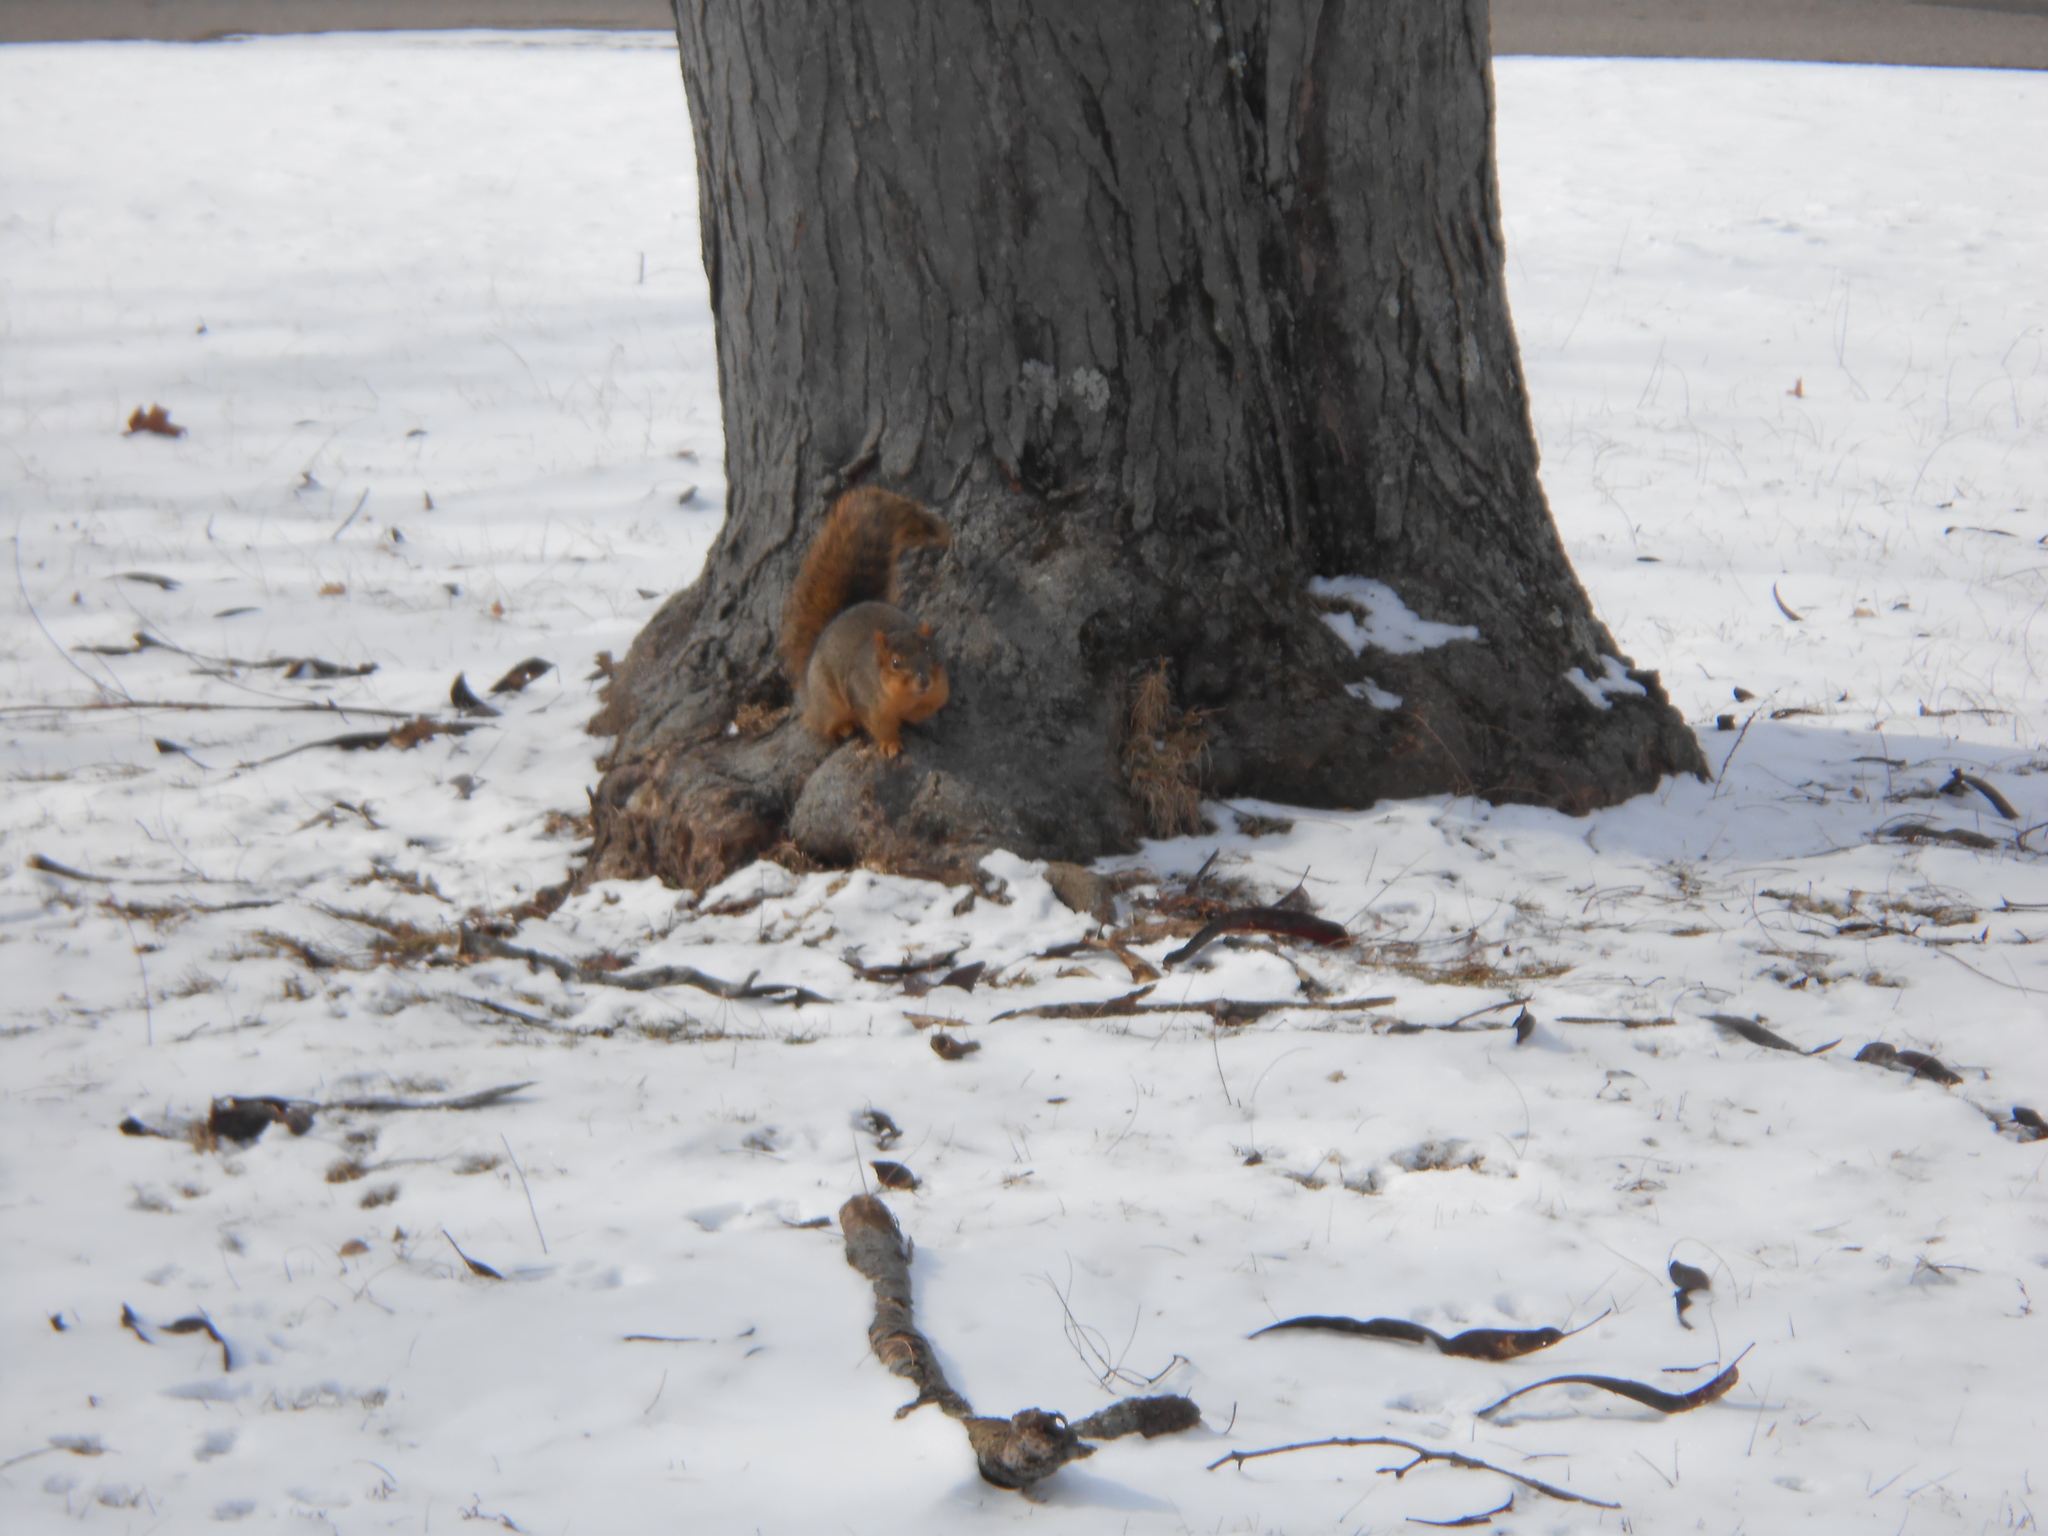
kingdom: Animalia
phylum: Chordata
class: Mammalia
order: Rodentia
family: Sciuridae
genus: Sciurus
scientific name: Sciurus niger
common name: Fox squirrel
